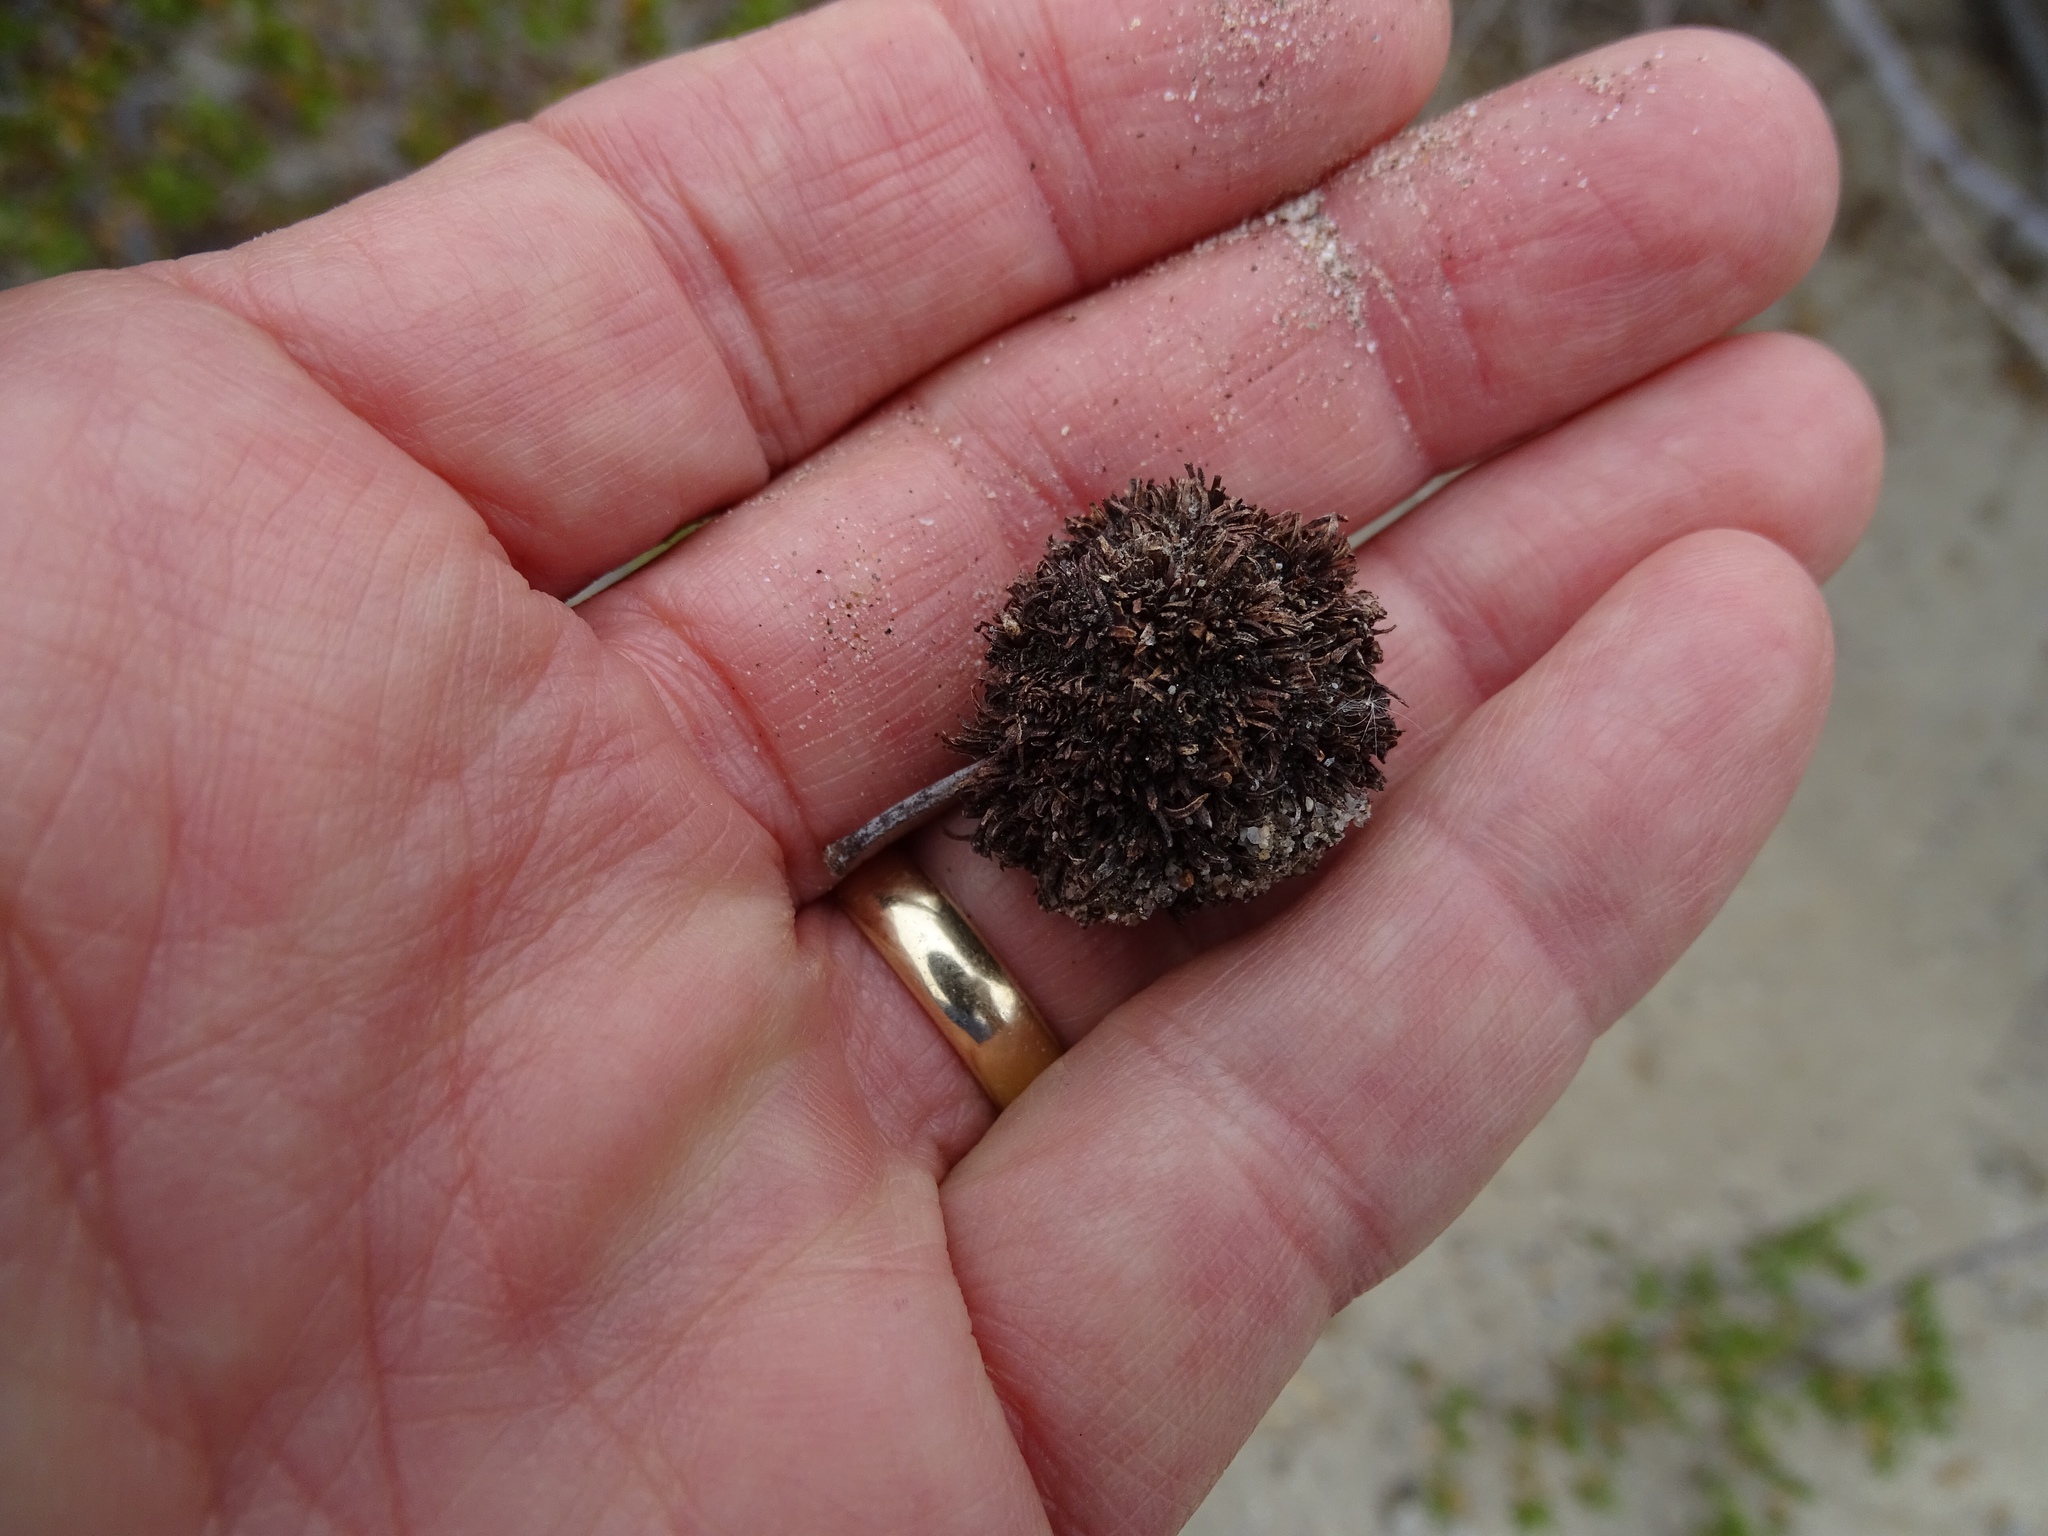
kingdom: Animalia
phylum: Arthropoda
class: Insecta
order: Diptera
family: Cecidomyiidae
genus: Asphondylia
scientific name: Asphondylia auripila
